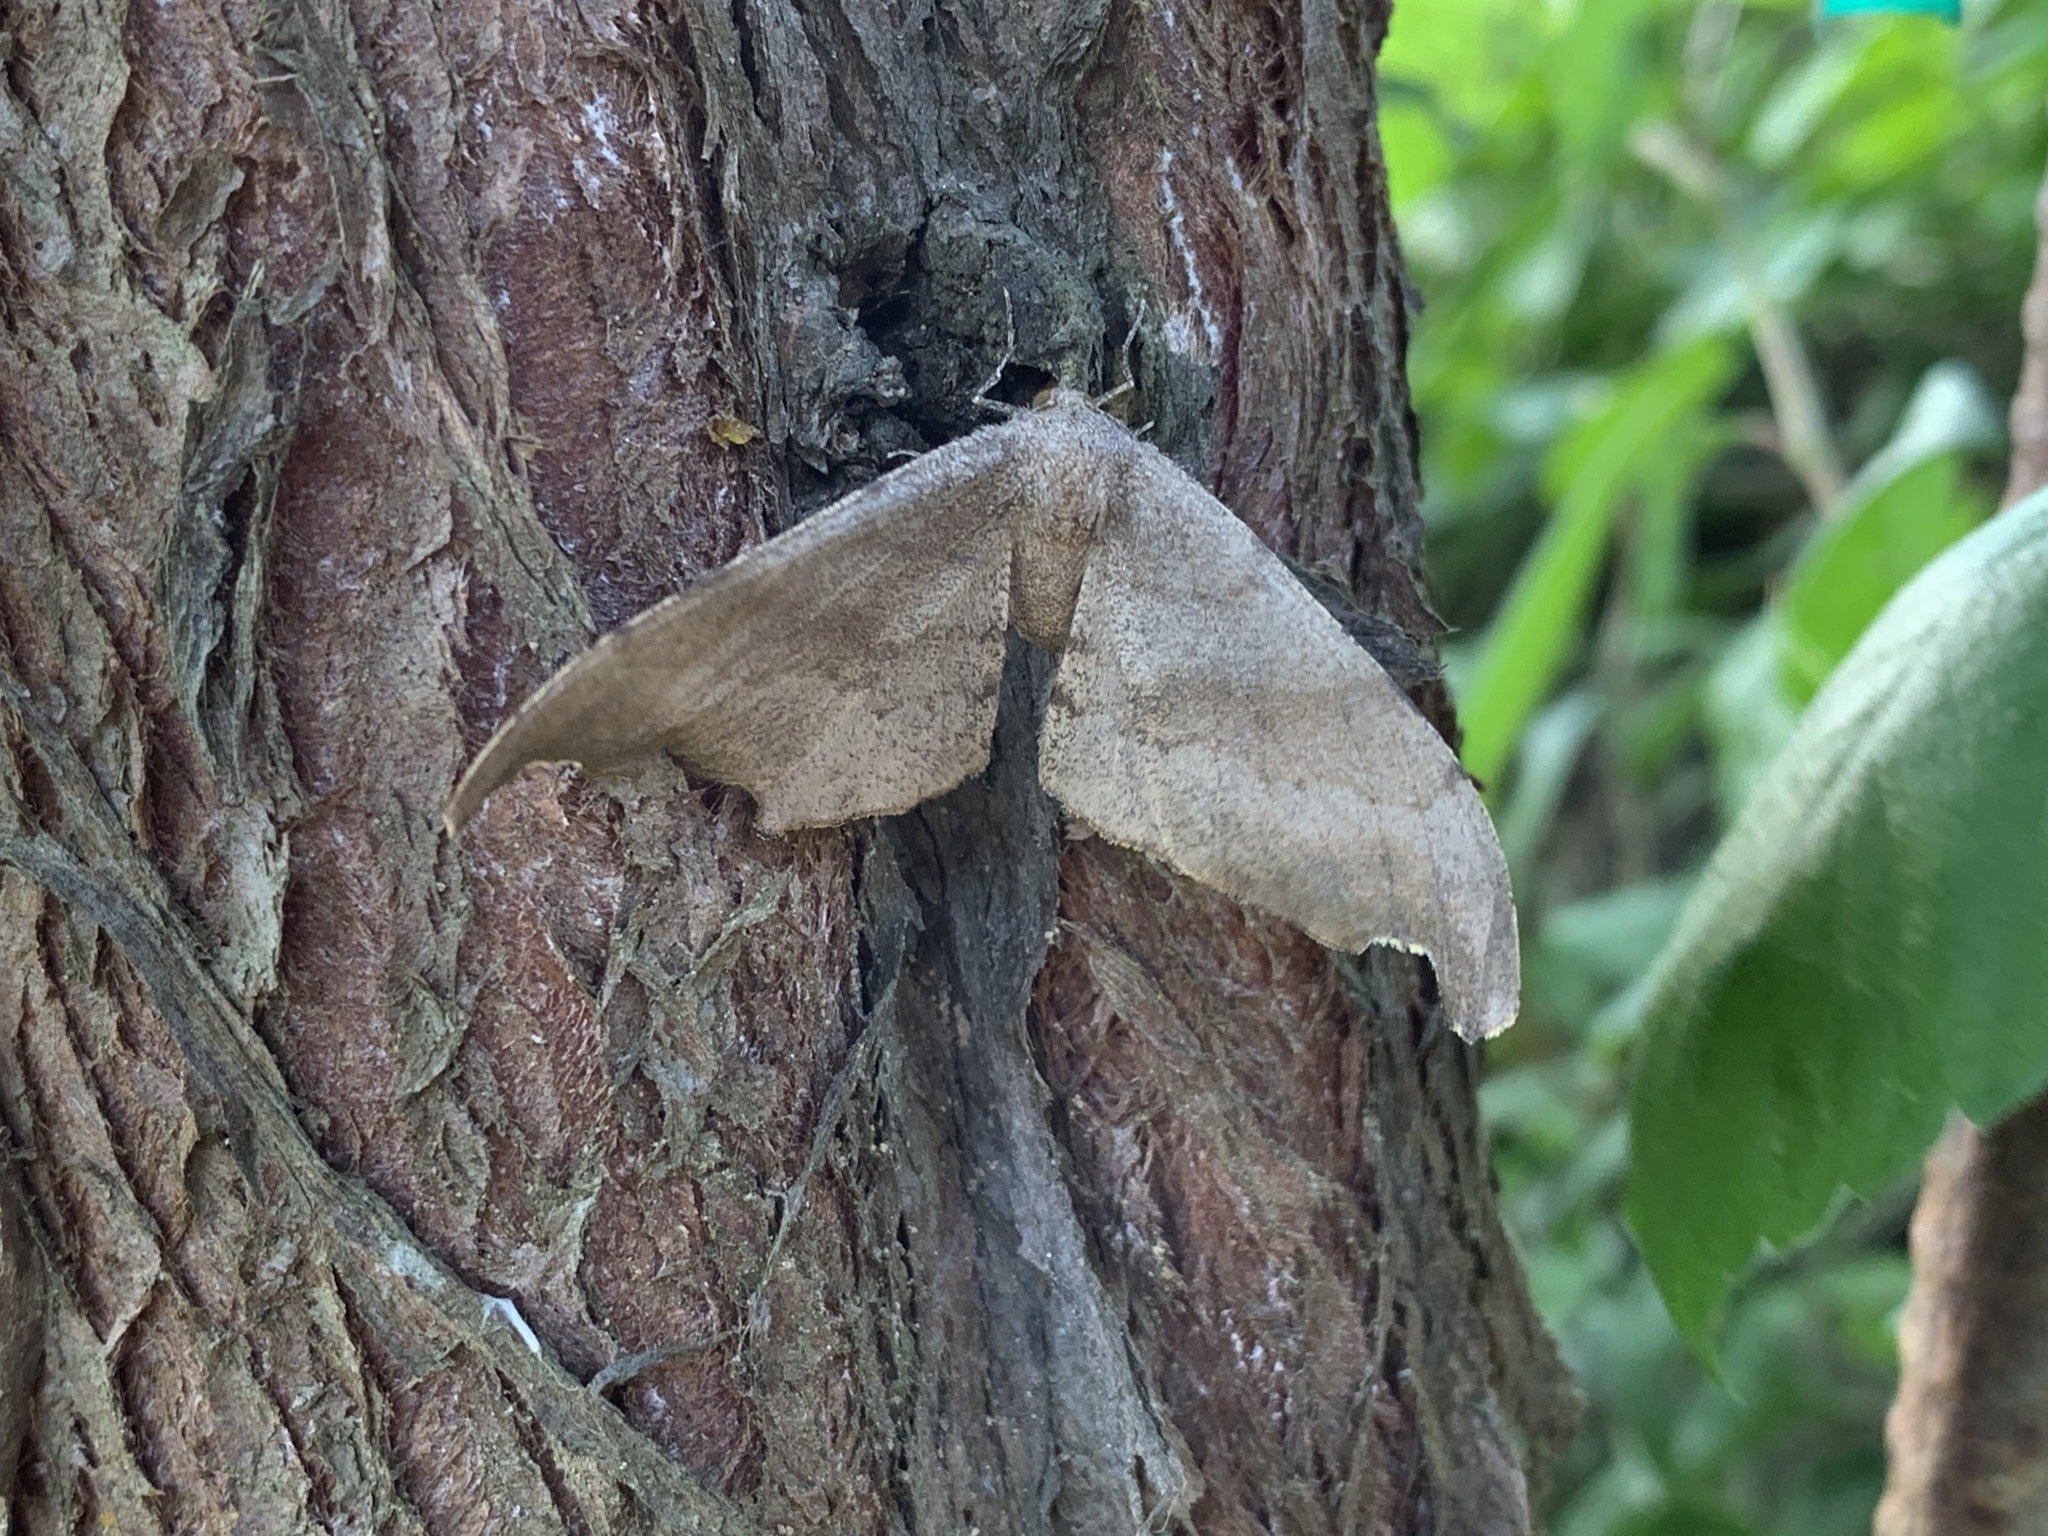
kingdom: Animalia
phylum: Arthropoda
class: Insecta
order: Lepidoptera
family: Geometridae
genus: Hyposidra
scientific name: Hyposidra talaca
